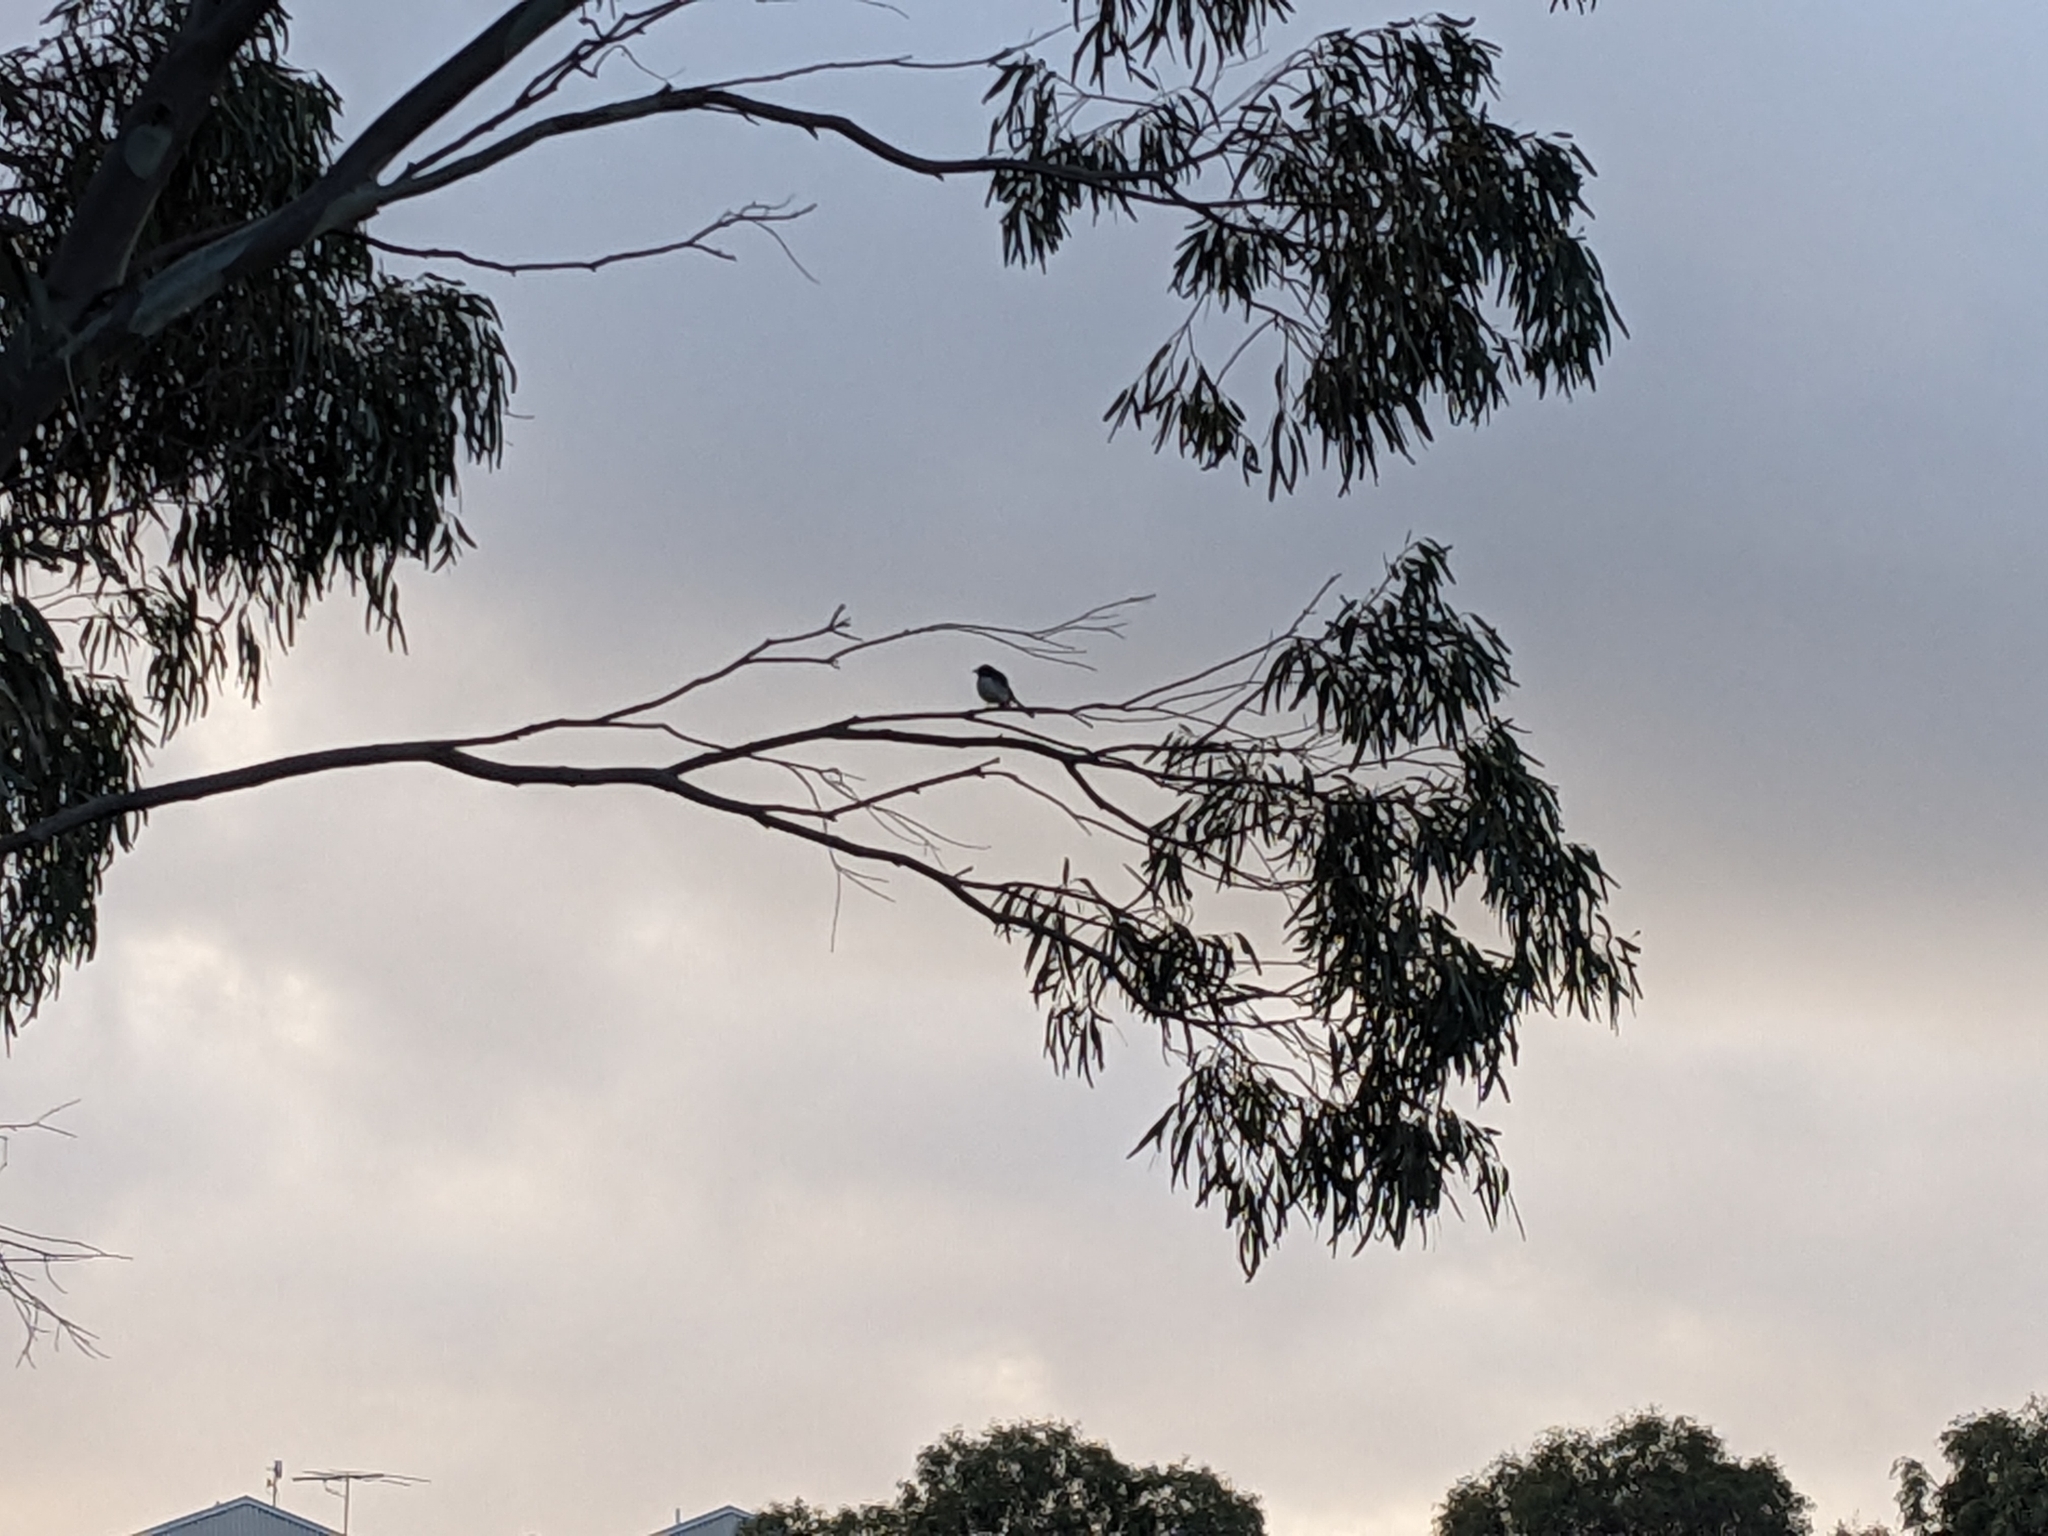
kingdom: Animalia
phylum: Chordata
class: Aves
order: Passeriformes
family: Rhipiduridae
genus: Rhipidura
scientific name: Rhipidura leucophrys
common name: Willie wagtail
